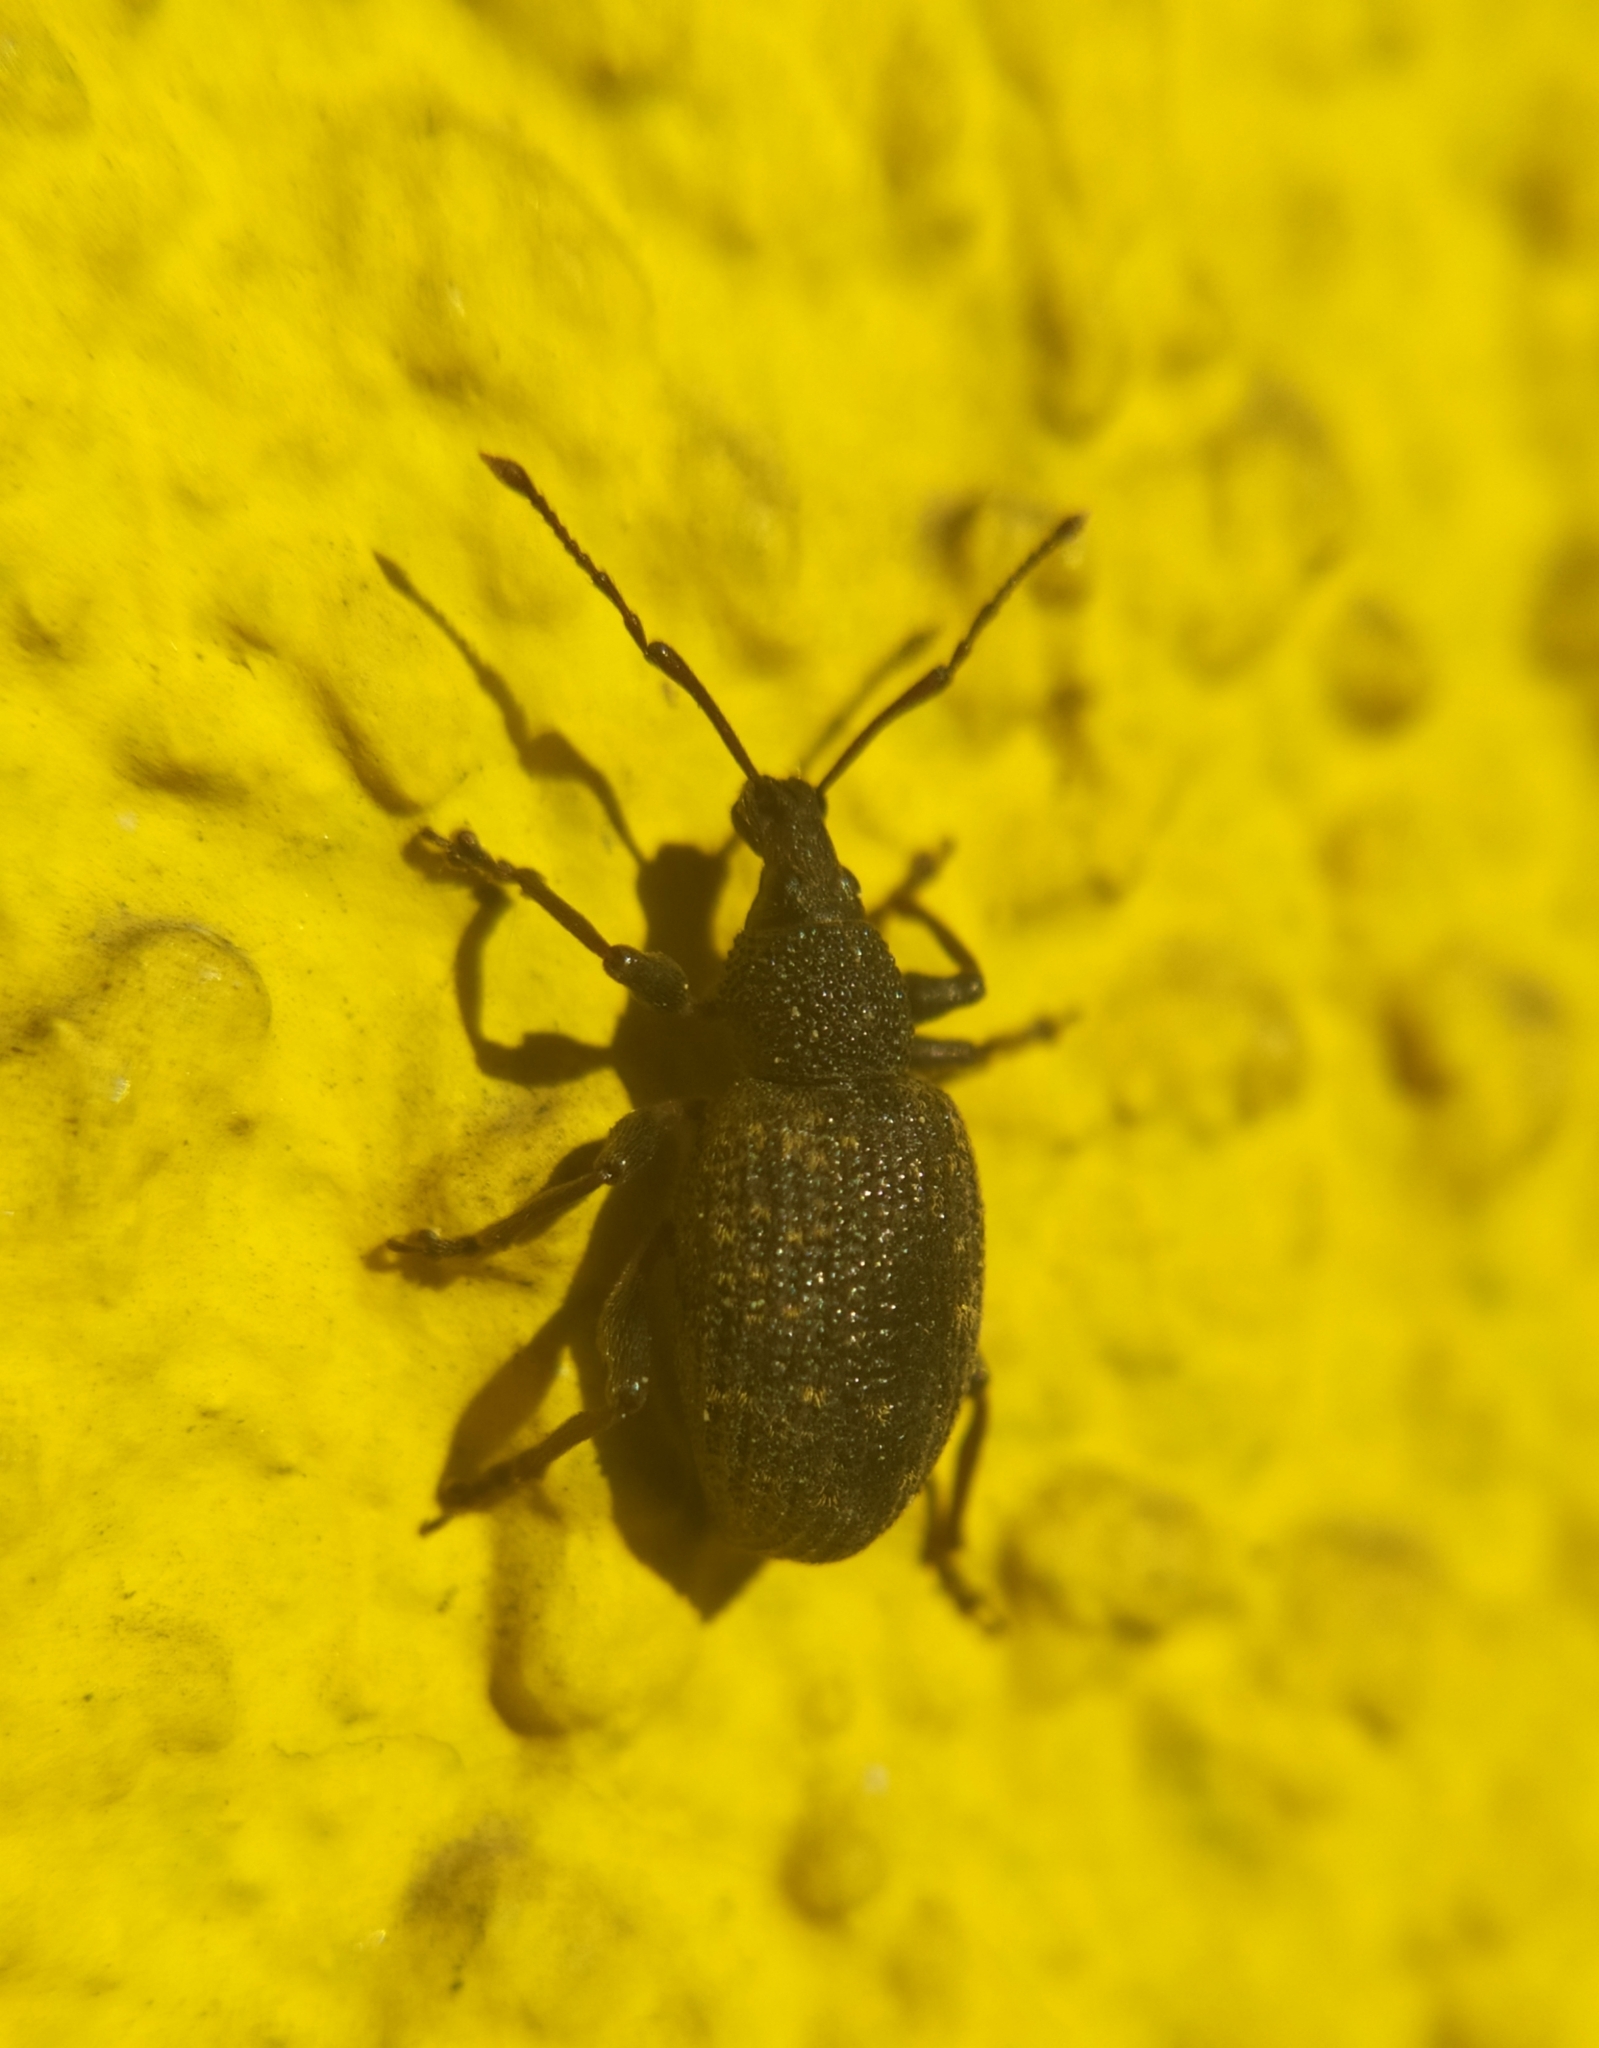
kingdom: Animalia
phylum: Arthropoda
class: Insecta
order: Coleoptera
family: Curculionidae
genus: Otiorhynchus
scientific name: Otiorhynchus sulcatus
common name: Black vine weevil
